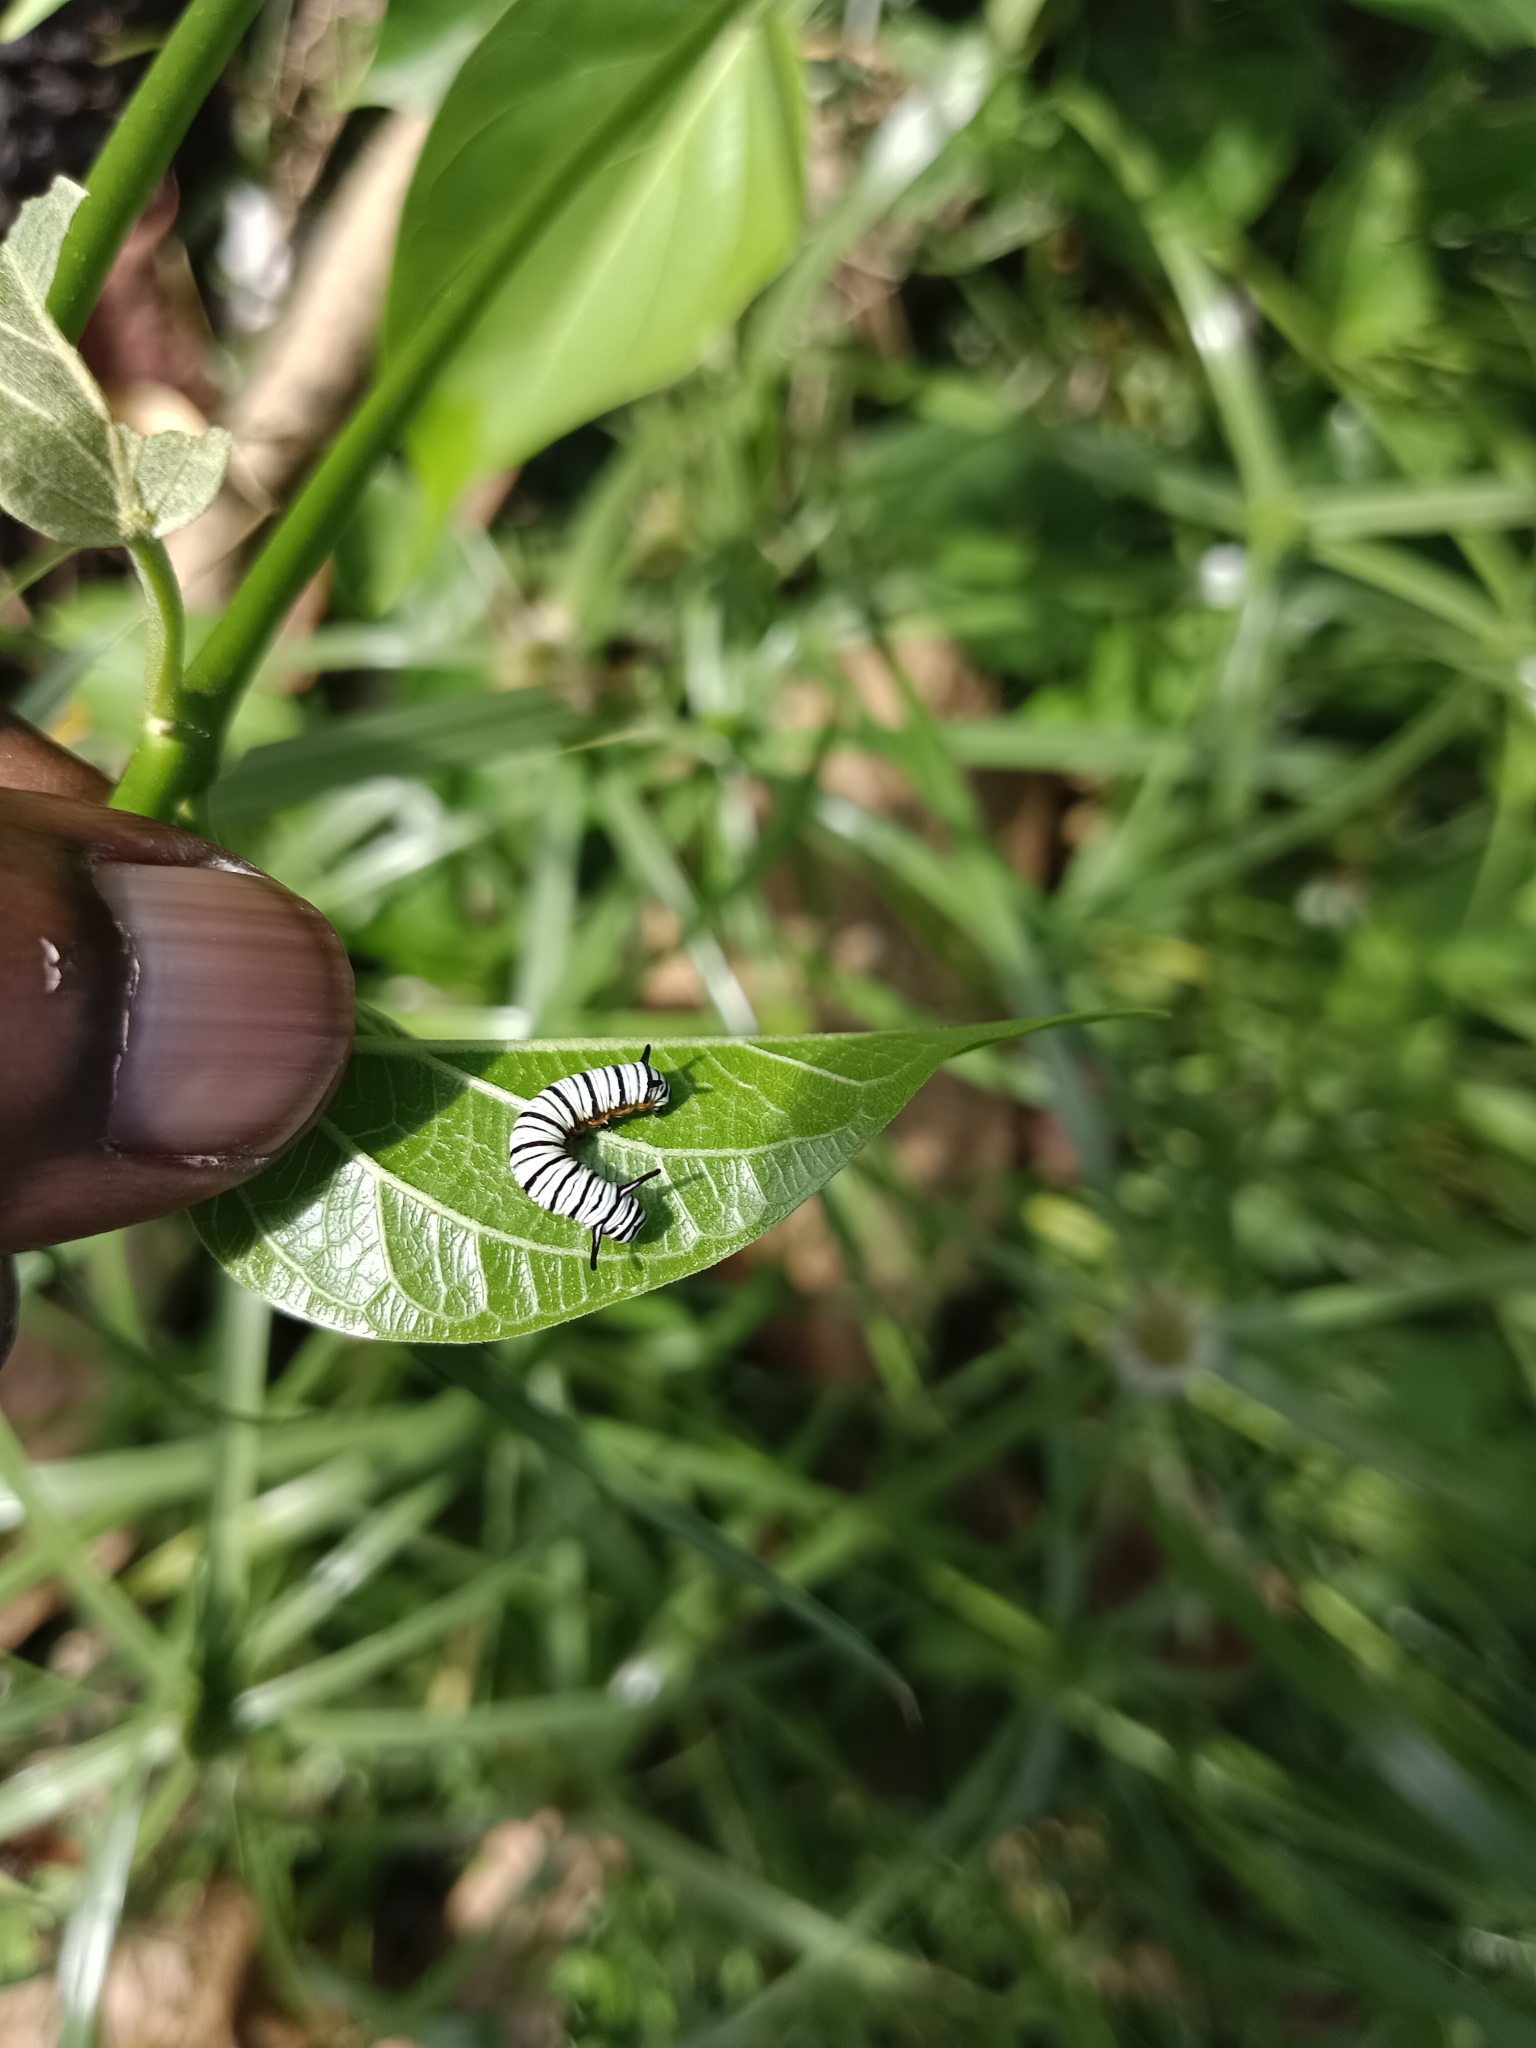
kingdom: Animalia
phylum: Arthropoda
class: Insecta
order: Lepidoptera
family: Nymphalidae
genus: Tirumala
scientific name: Tirumala limniace
